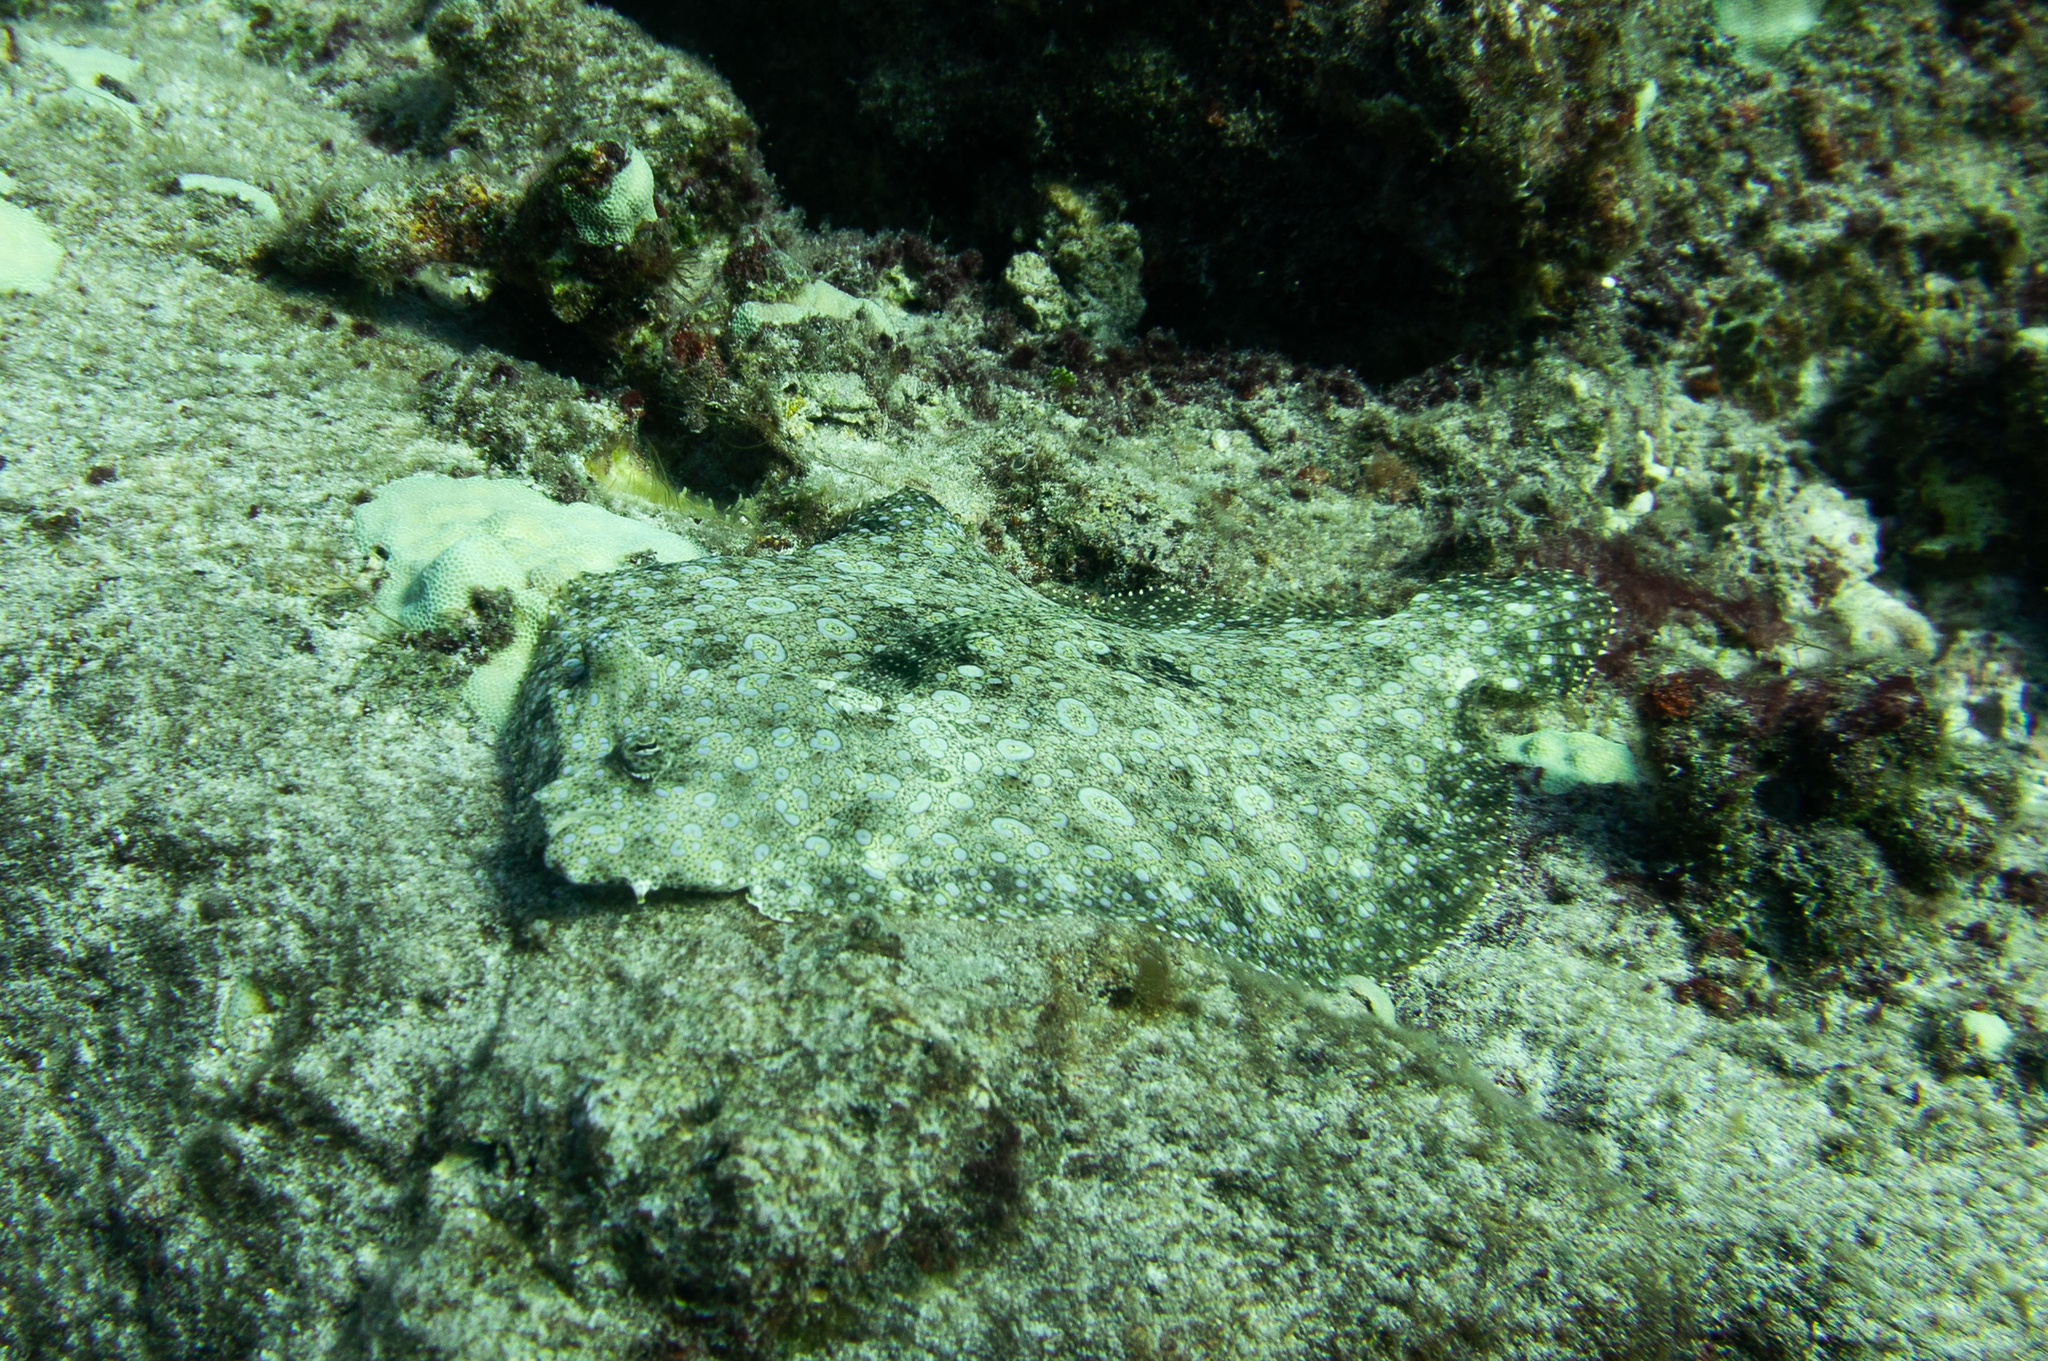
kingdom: Animalia
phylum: Chordata
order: Pleuronectiformes
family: Bothidae
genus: Bothus
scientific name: Bothus mancus
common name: Flowery flounder
